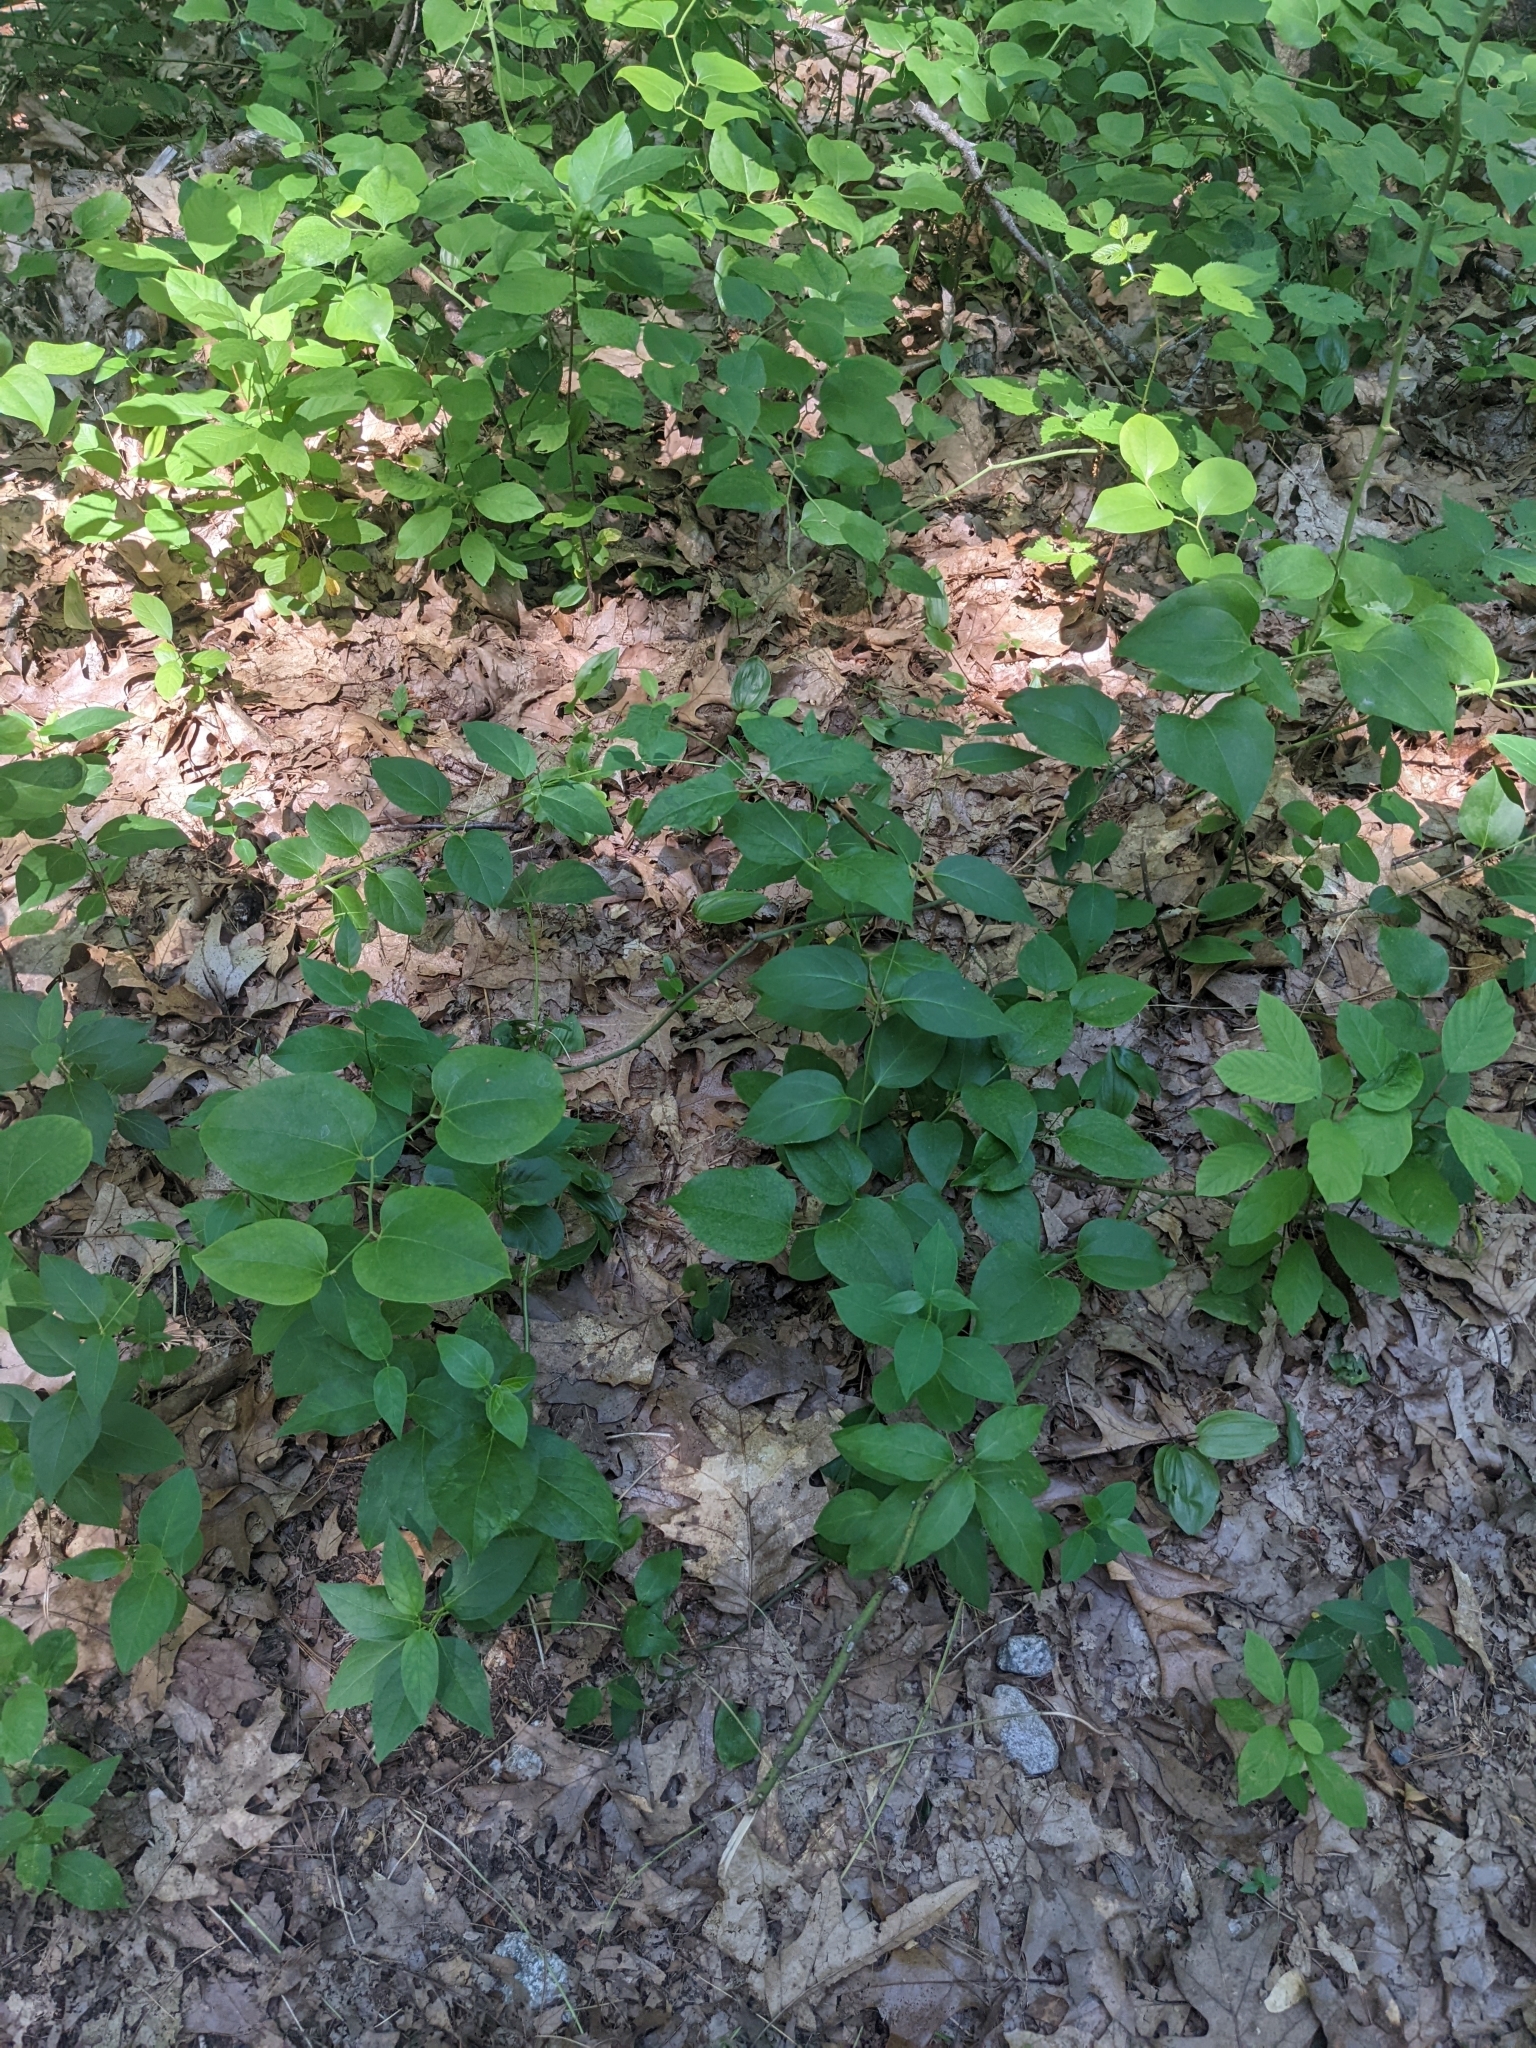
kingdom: Plantae
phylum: Tracheophyta
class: Magnoliopsida
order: Gentianales
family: Apocynaceae
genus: Vincetoxicum
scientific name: Vincetoxicum nigrum
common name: Black swallow-wort
